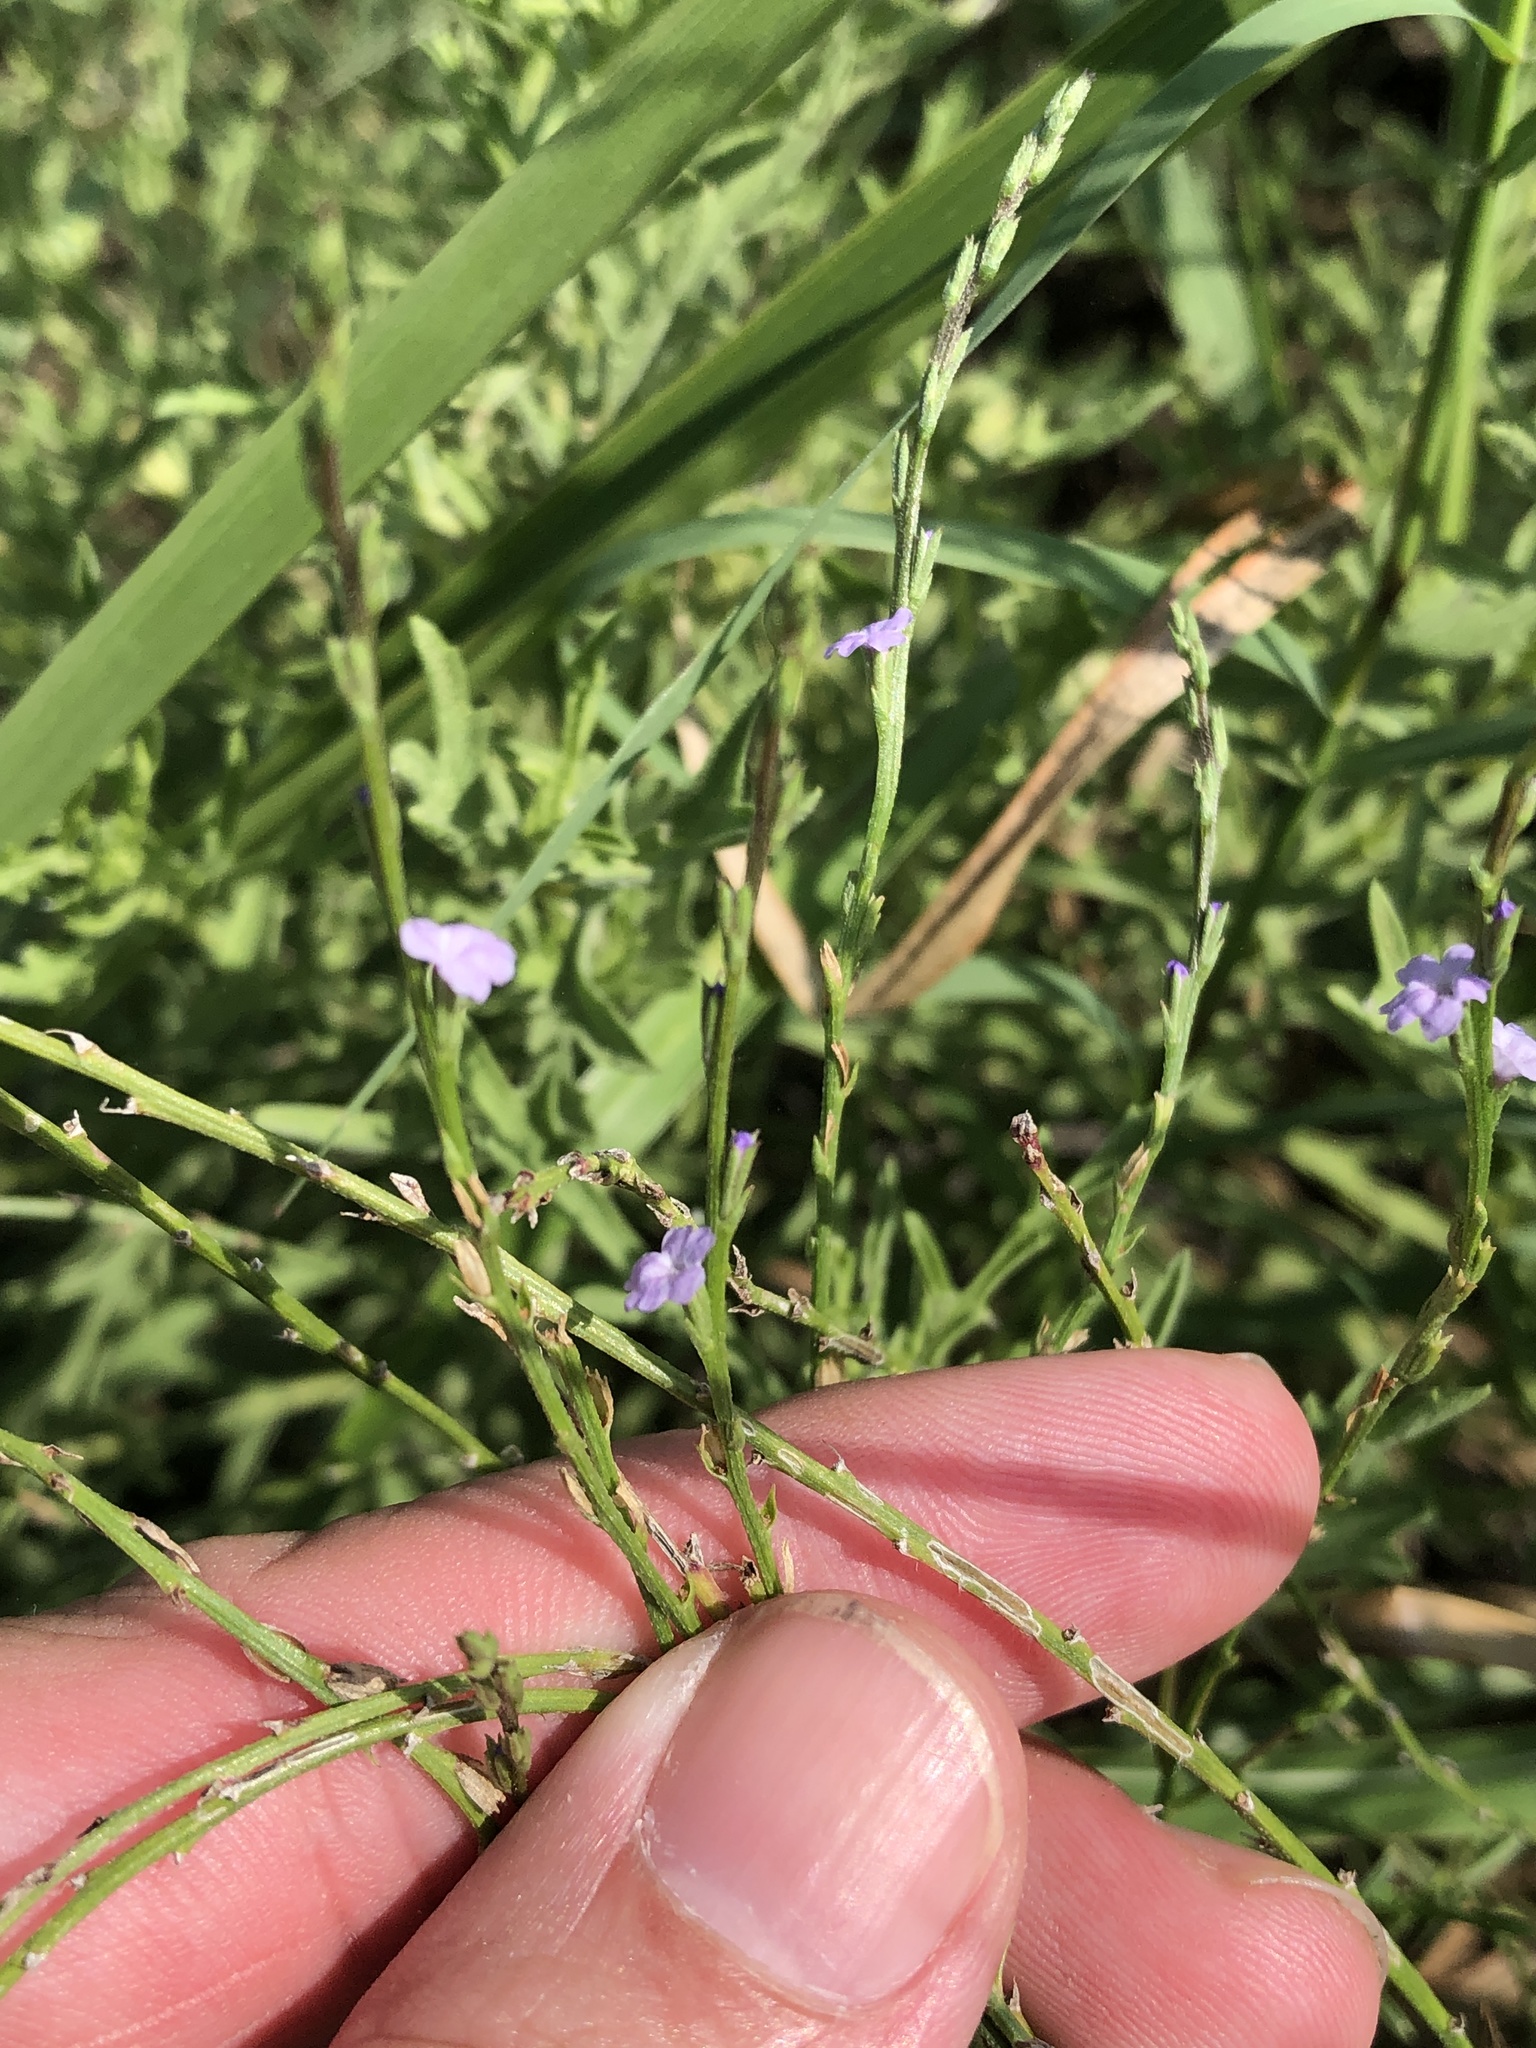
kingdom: Plantae
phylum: Tracheophyta
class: Magnoliopsida
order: Lamiales
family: Verbenaceae
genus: Verbena
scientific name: Verbena halei
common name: Texas vervain
